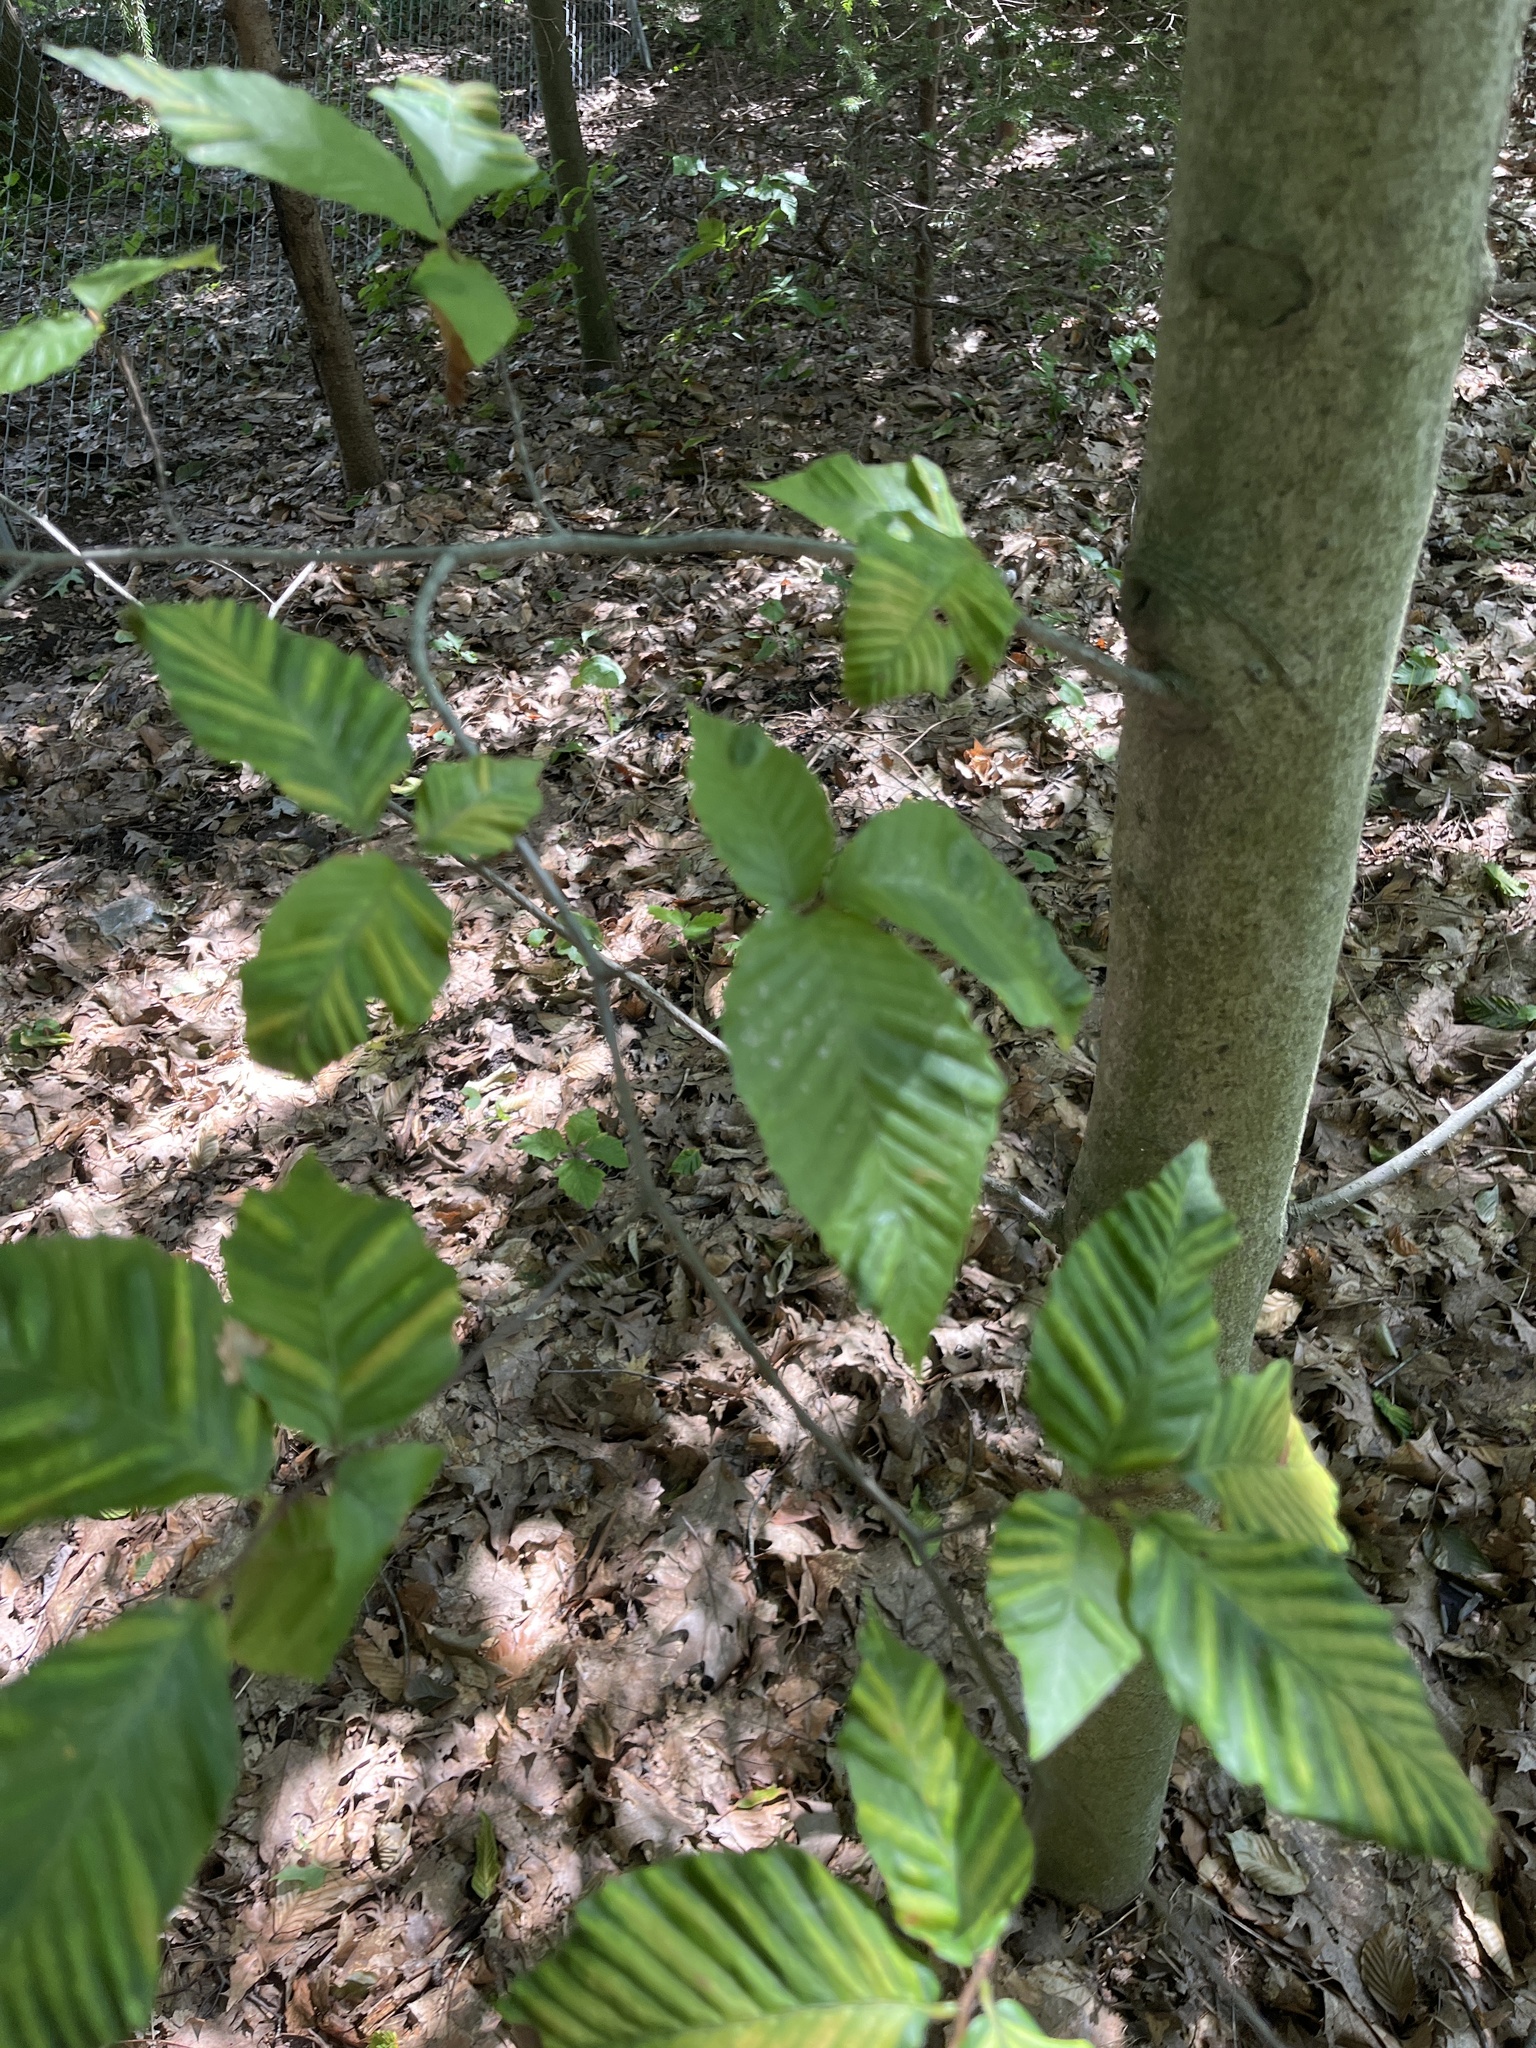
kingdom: Plantae
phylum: Tracheophyta
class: Magnoliopsida
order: Fagales
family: Fagaceae
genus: Fagus
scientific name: Fagus grandifolia
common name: American beech
